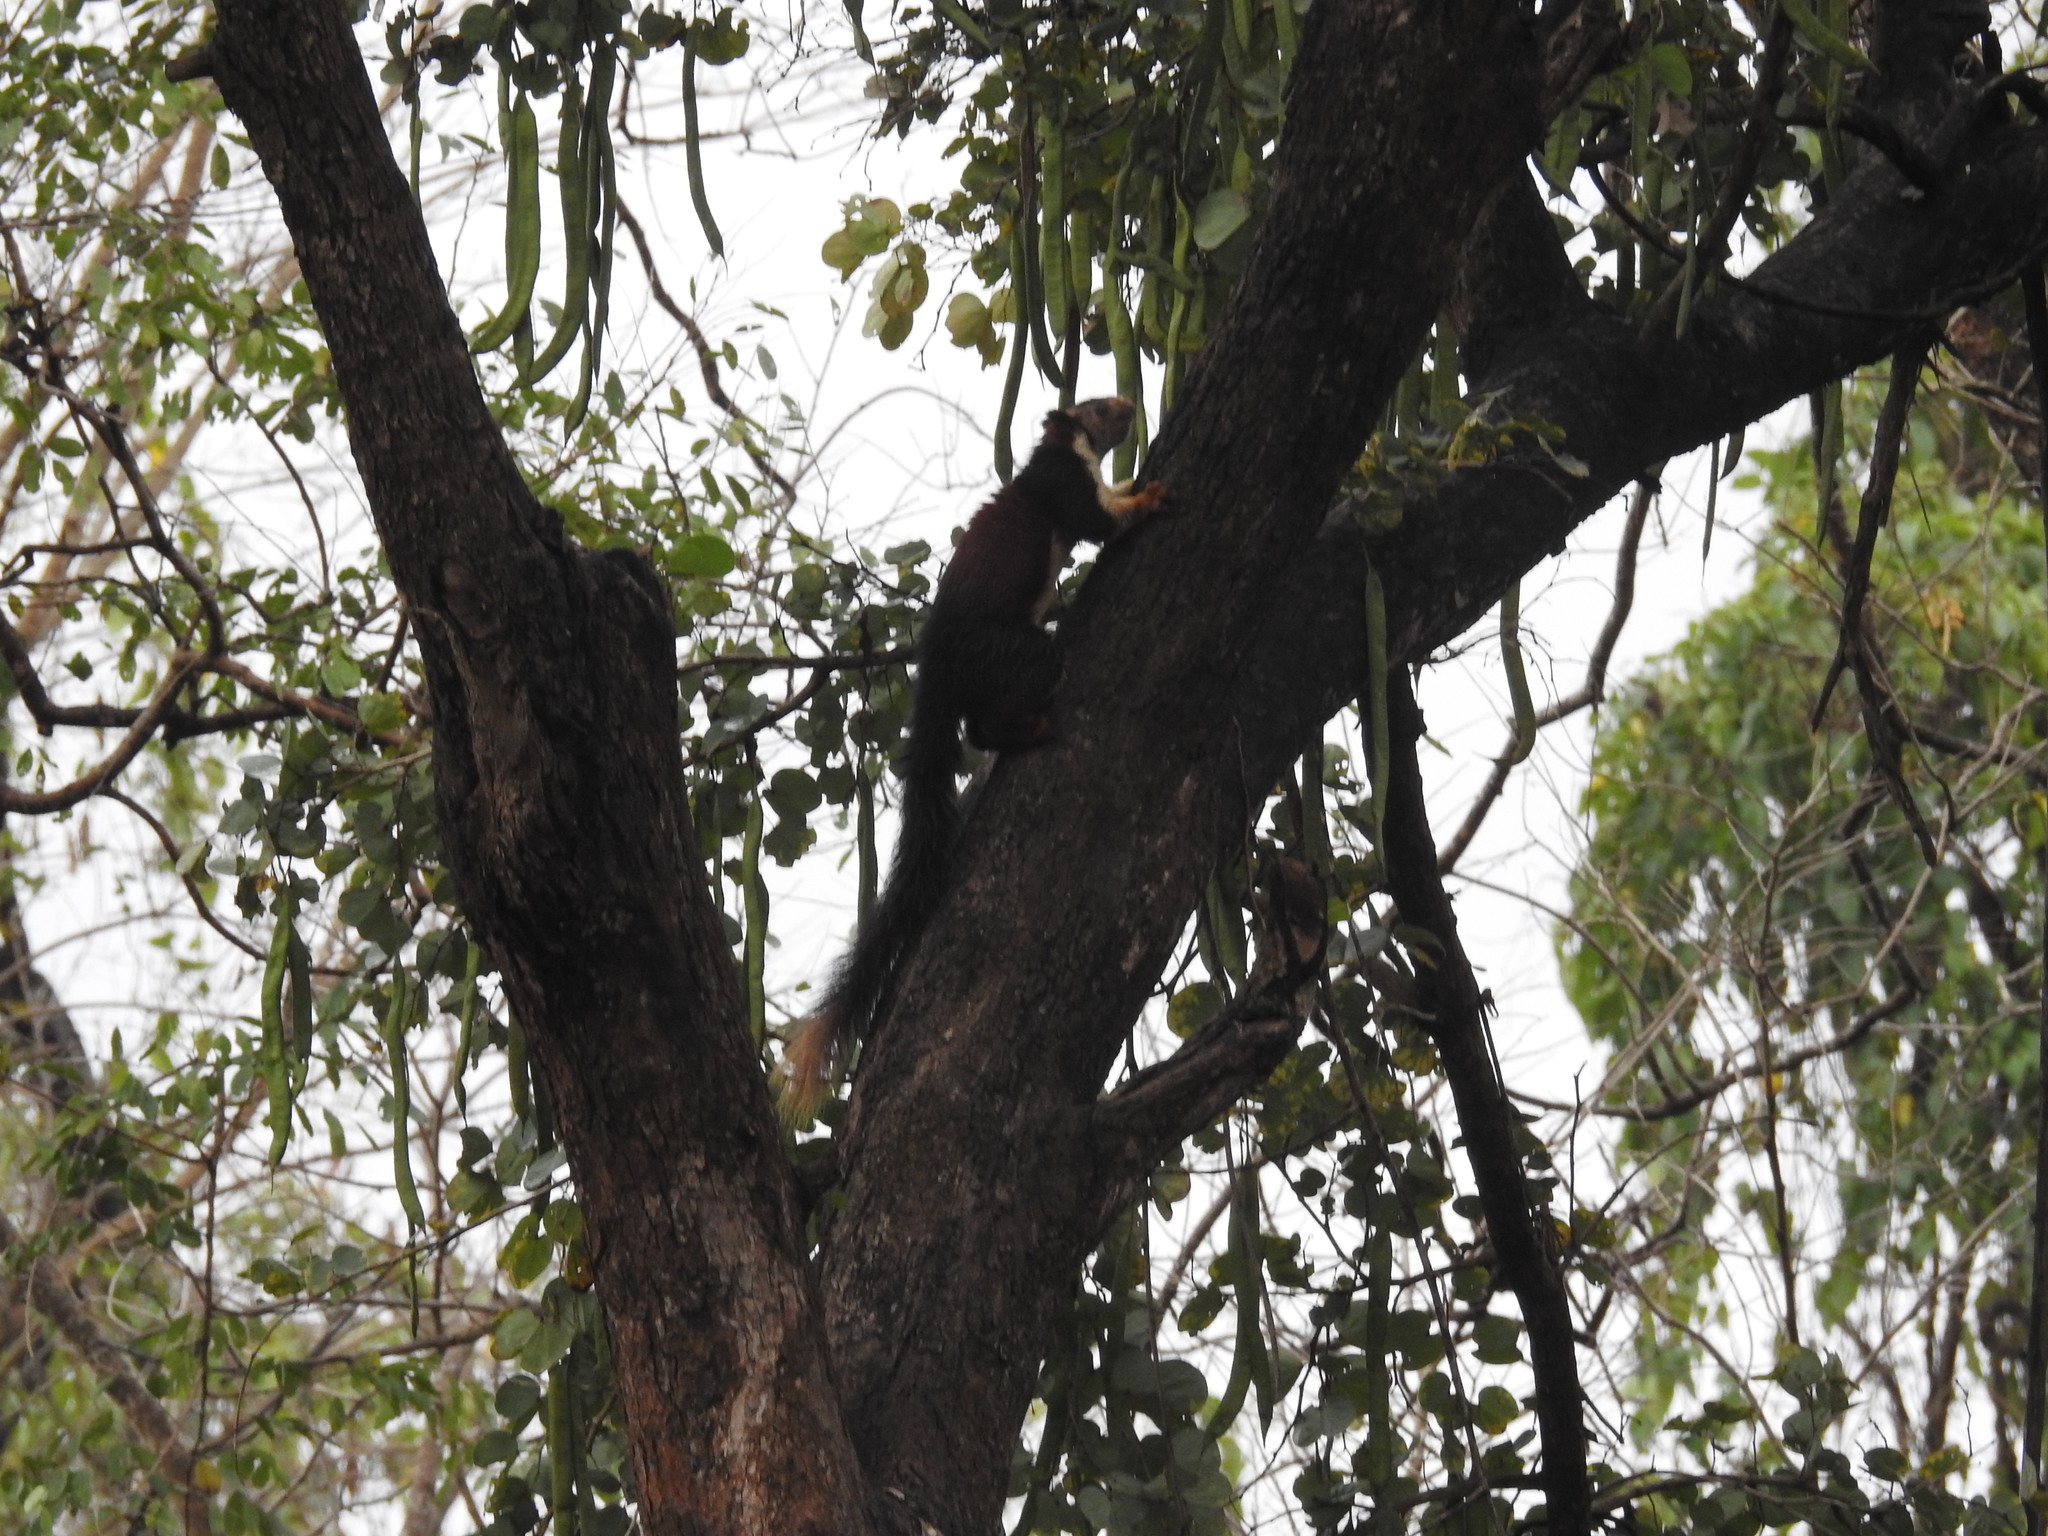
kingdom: Animalia
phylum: Chordata
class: Mammalia
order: Rodentia
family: Sciuridae
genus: Ratufa
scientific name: Ratufa indica
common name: Indian giant squirrel
